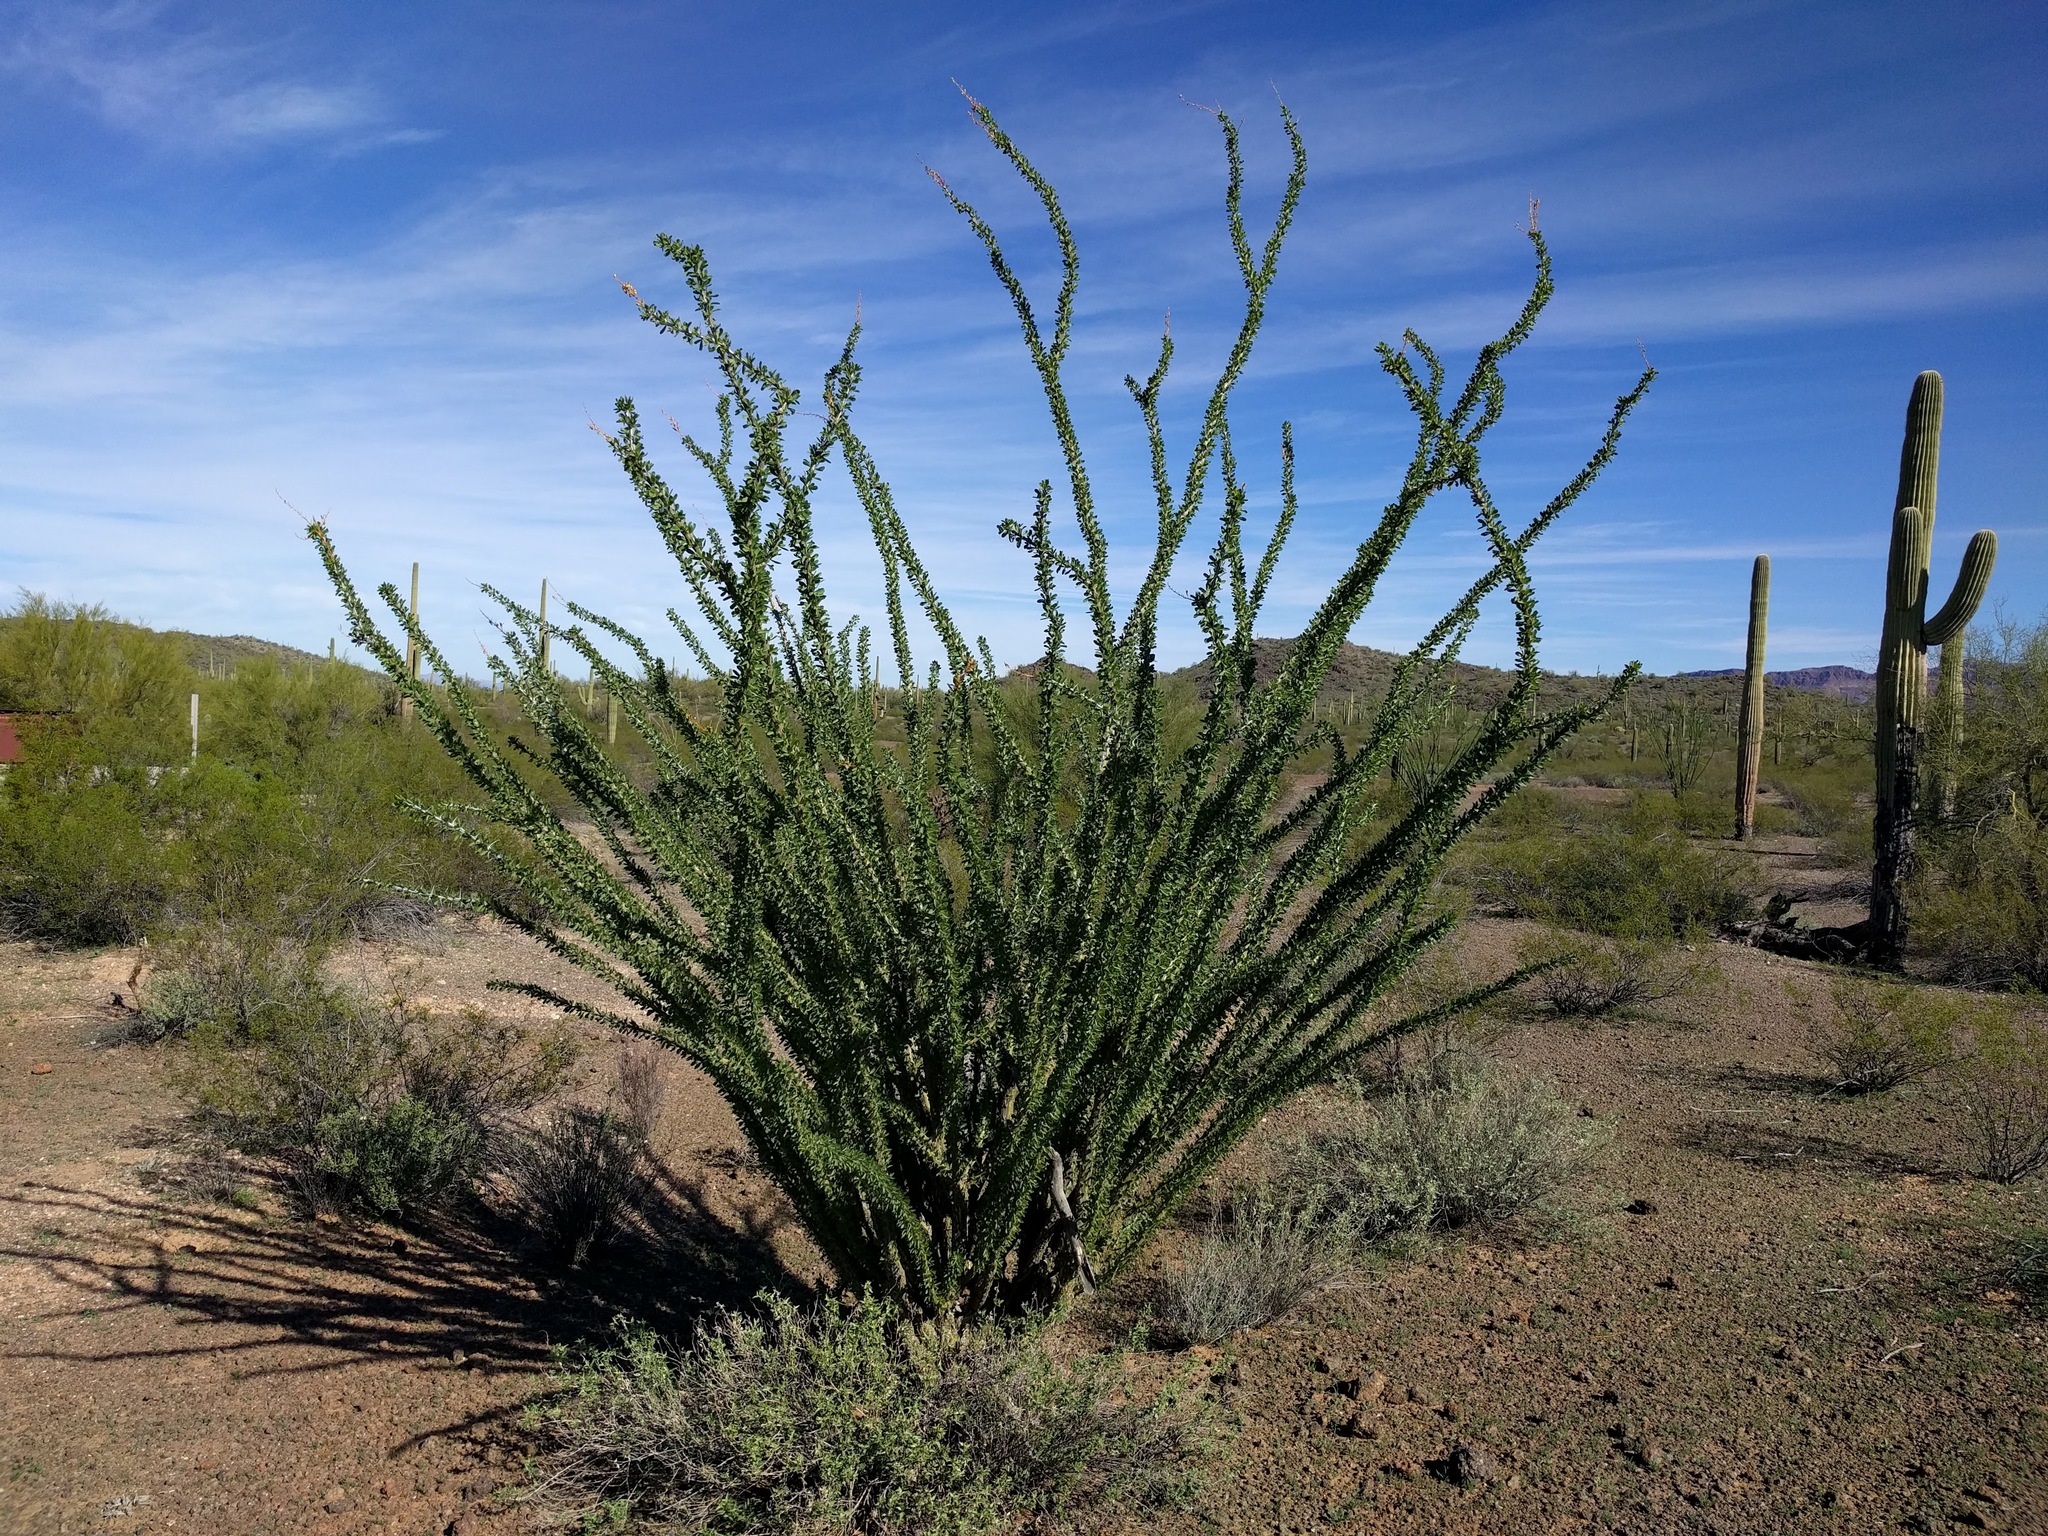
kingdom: Plantae
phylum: Tracheophyta
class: Magnoliopsida
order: Ericales
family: Fouquieriaceae
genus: Fouquieria
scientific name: Fouquieria splendens
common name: Vine-cactus
